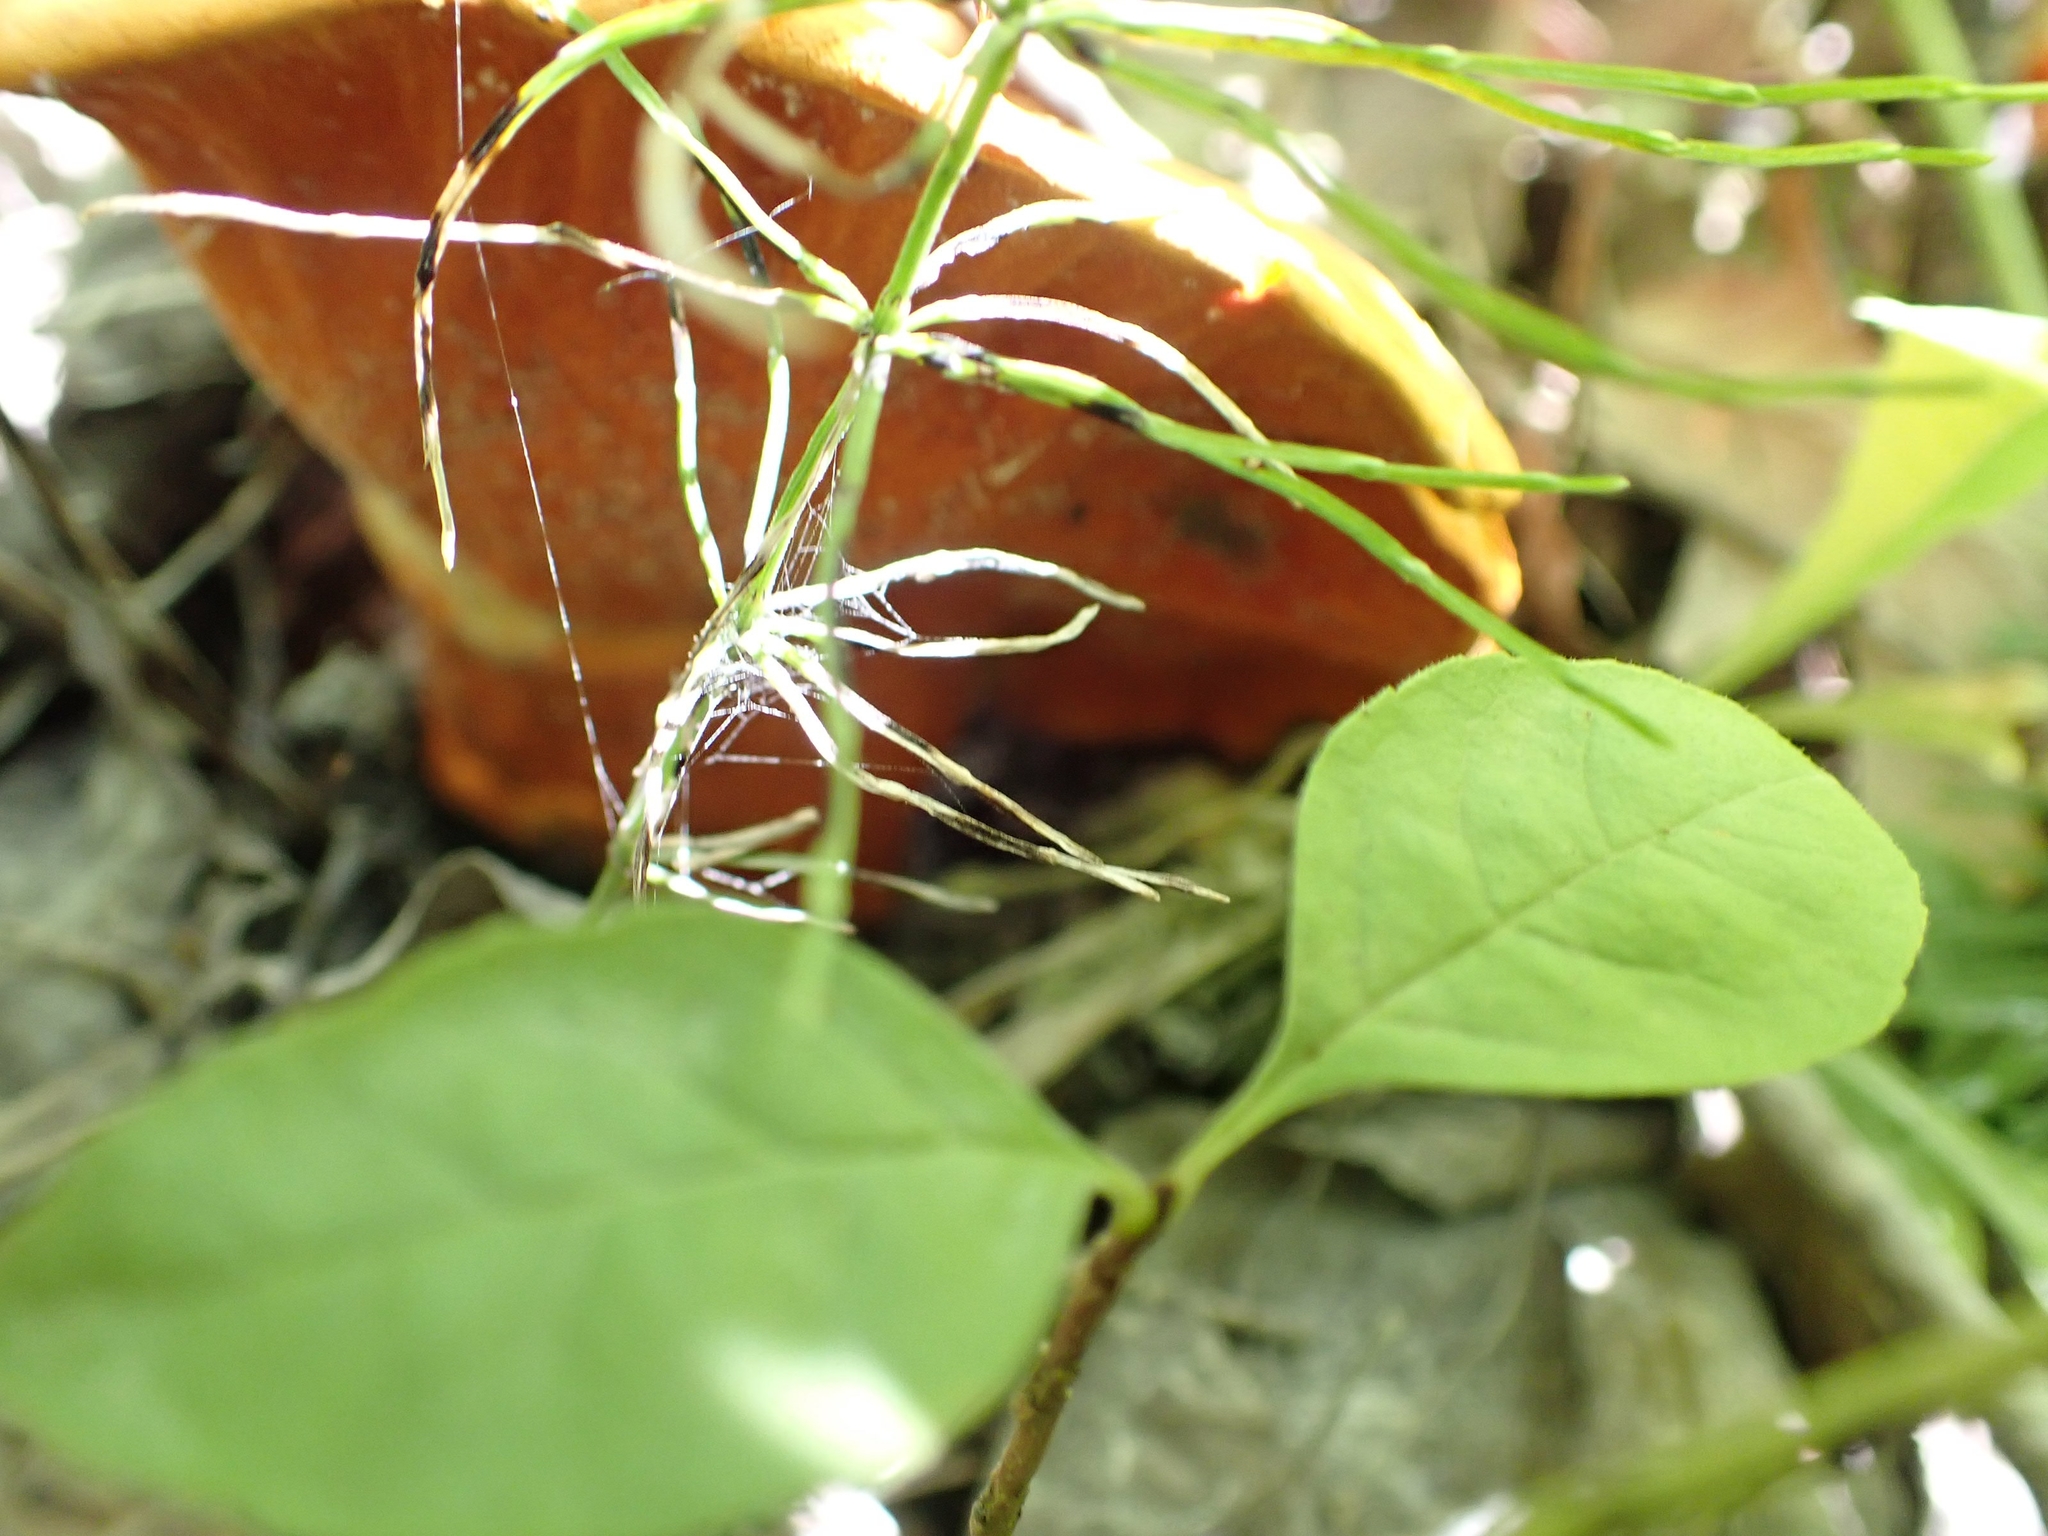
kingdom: Fungi
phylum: Ascomycota
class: Sordariomycetes
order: Hypocreales
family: Hypocreaceae
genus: Hypomyces
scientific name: Hypomyces lactifluorum
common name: Lobster mushroom
